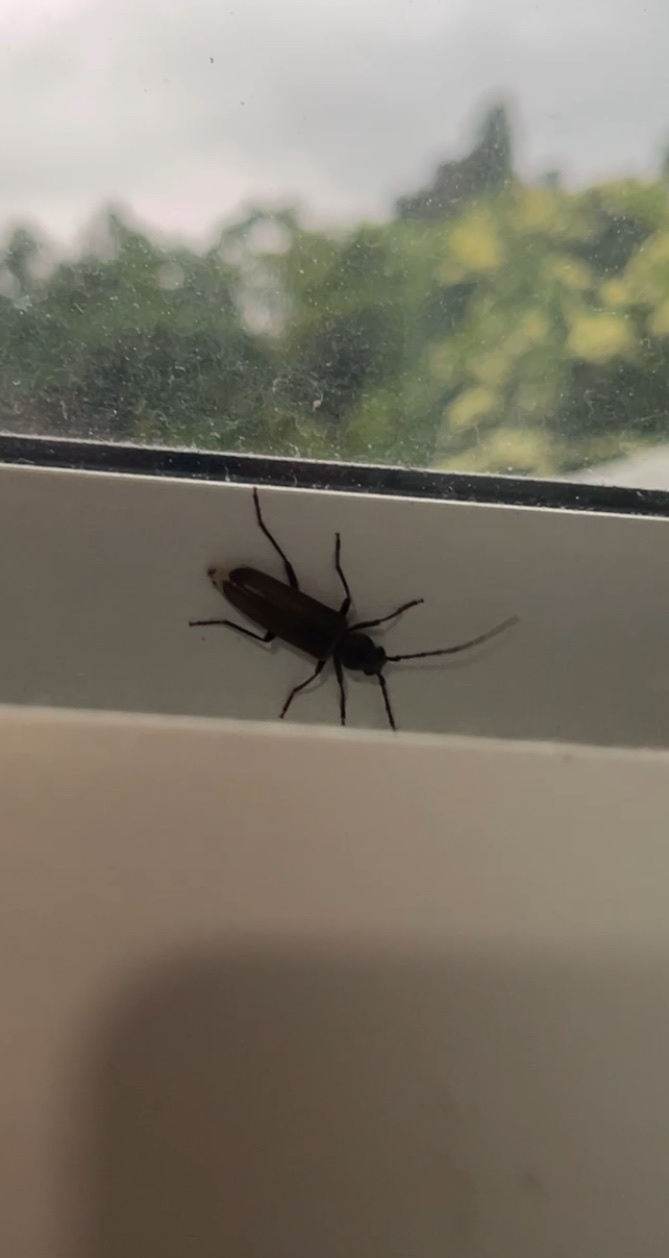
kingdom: Animalia
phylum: Arthropoda
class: Insecta
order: Coleoptera
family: Cerambycidae
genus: Arhopalus
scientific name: Arhopalus ferus
